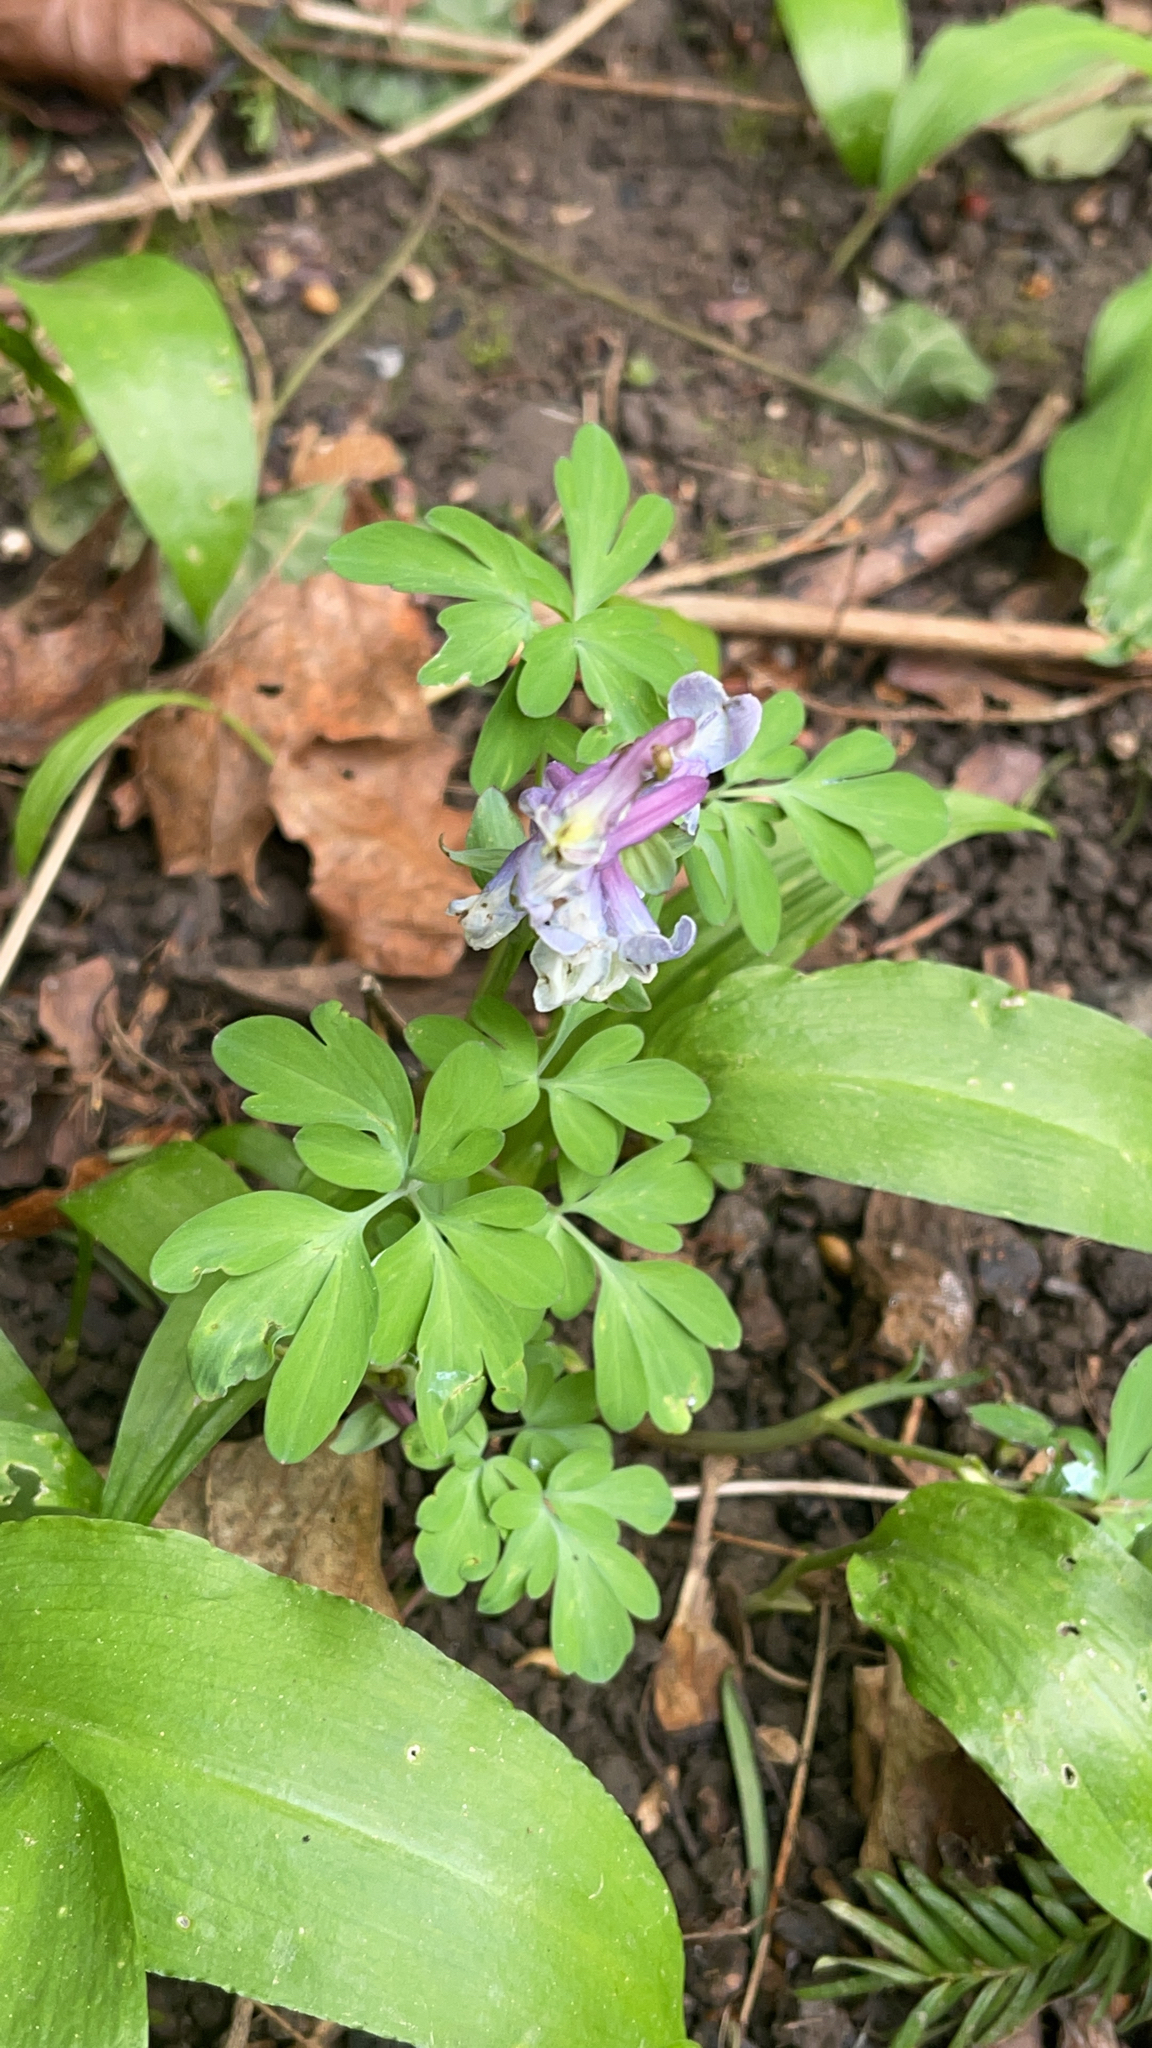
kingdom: Plantae
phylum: Tracheophyta
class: Magnoliopsida
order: Ranunculales
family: Papaveraceae
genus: Corydalis
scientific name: Corydalis cava
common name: Hollowroot
